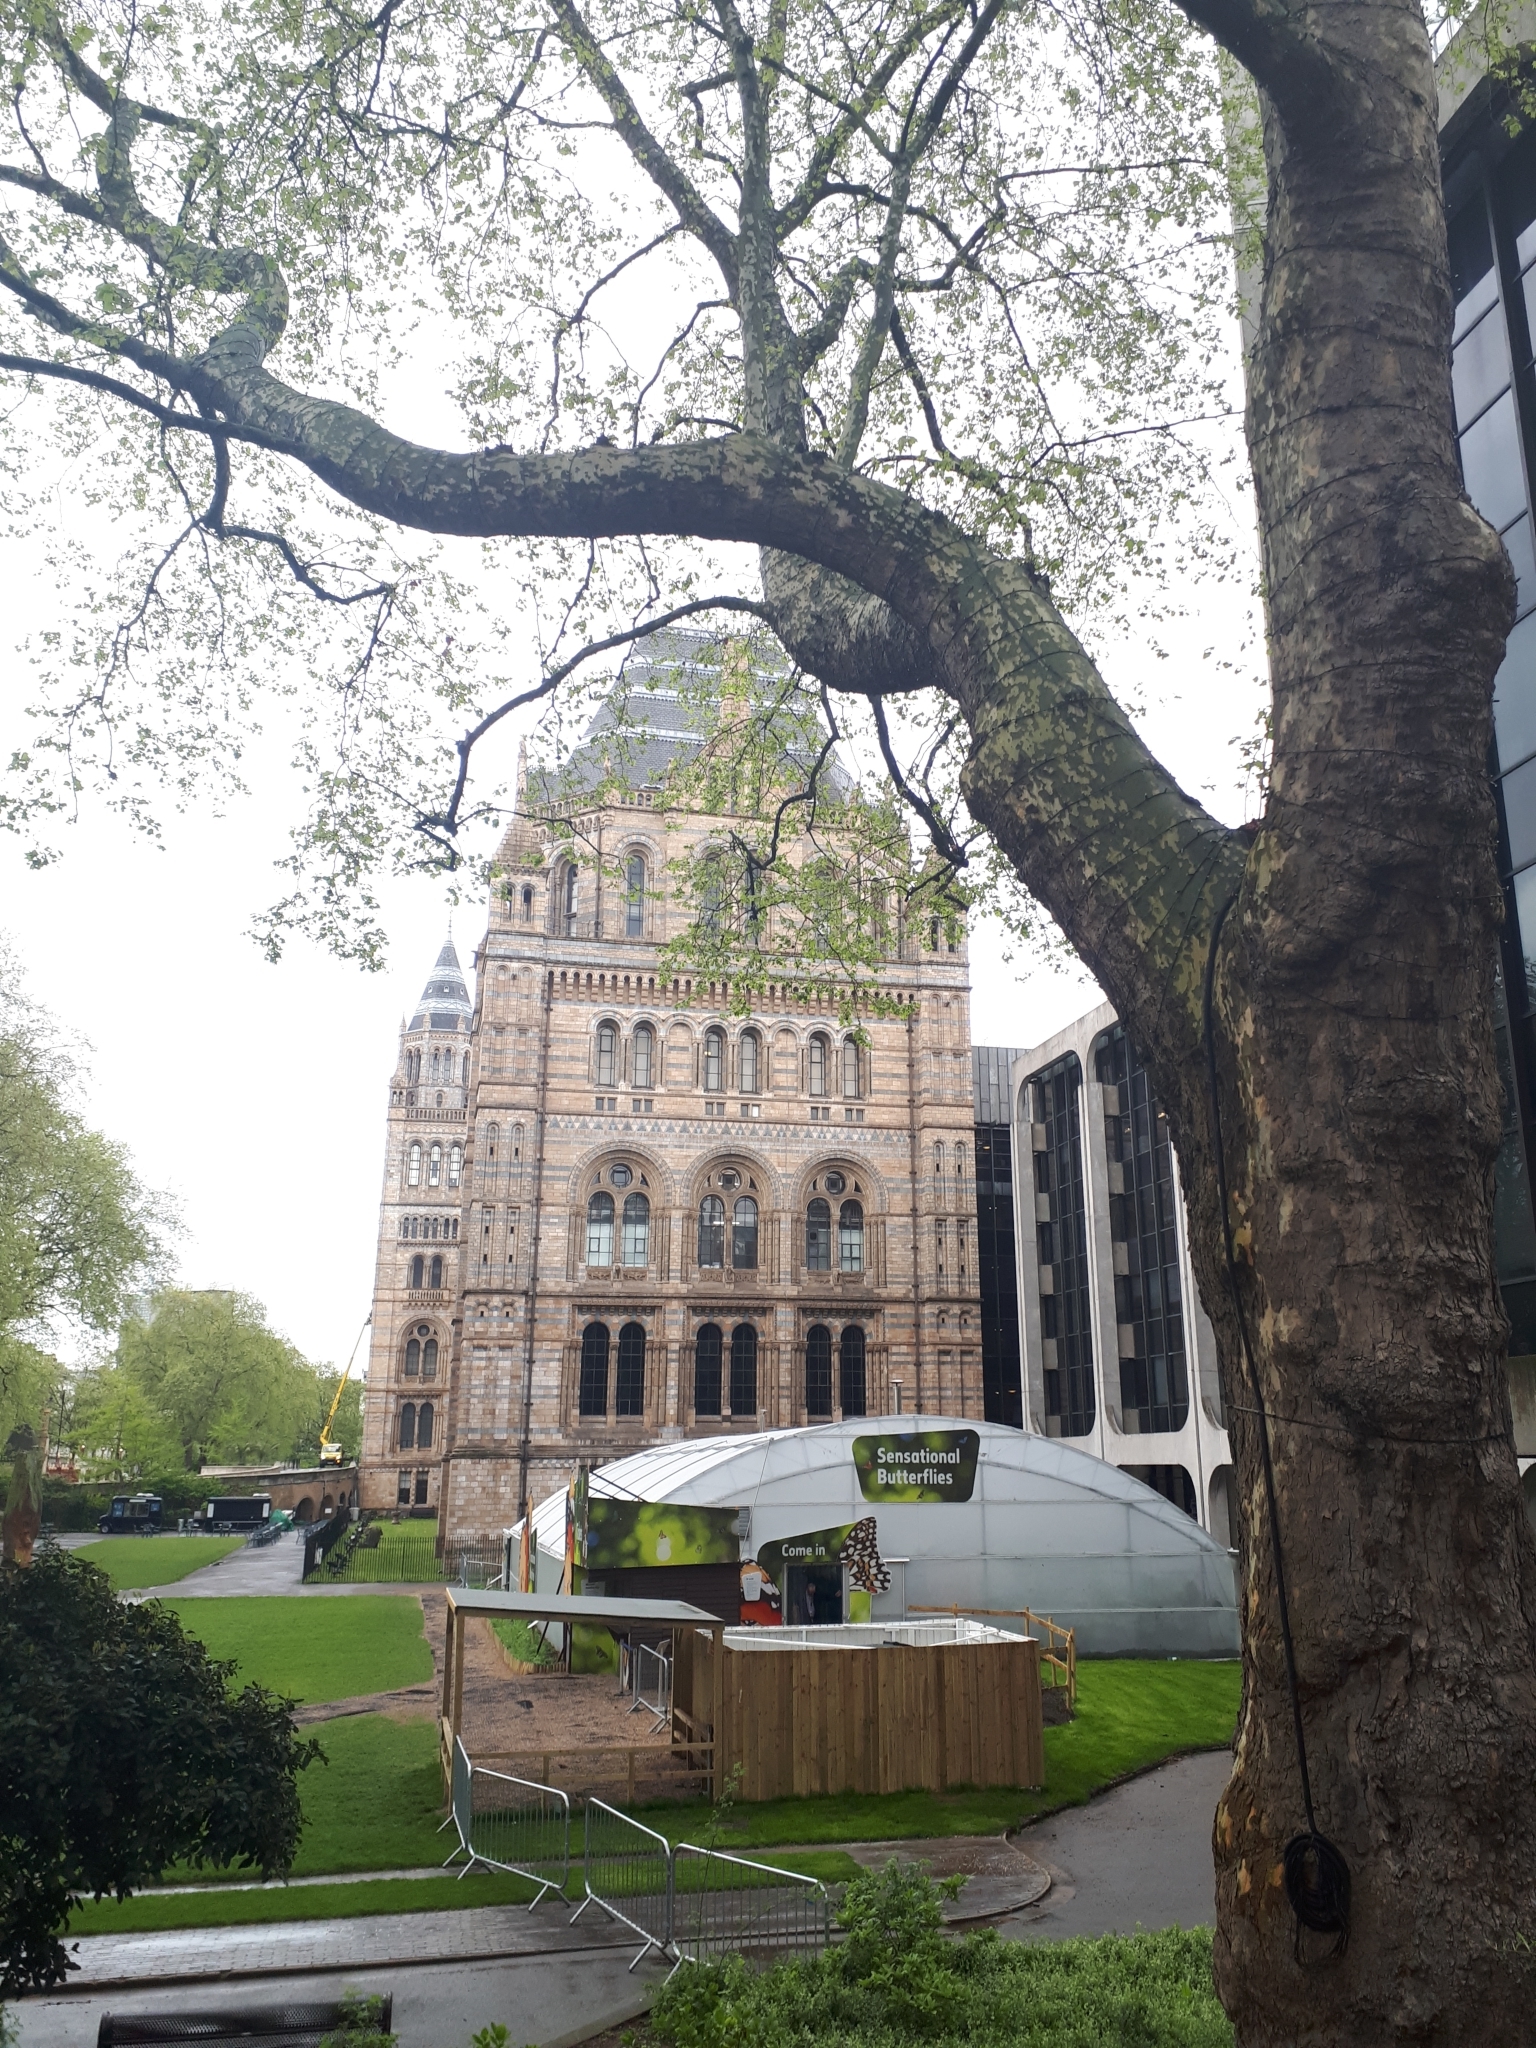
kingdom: Plantae
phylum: Tracheophyta
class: Magnoliopsida
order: Proteales
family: Platanaceae
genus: Platanus
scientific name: Platanus hispanica
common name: London plane
